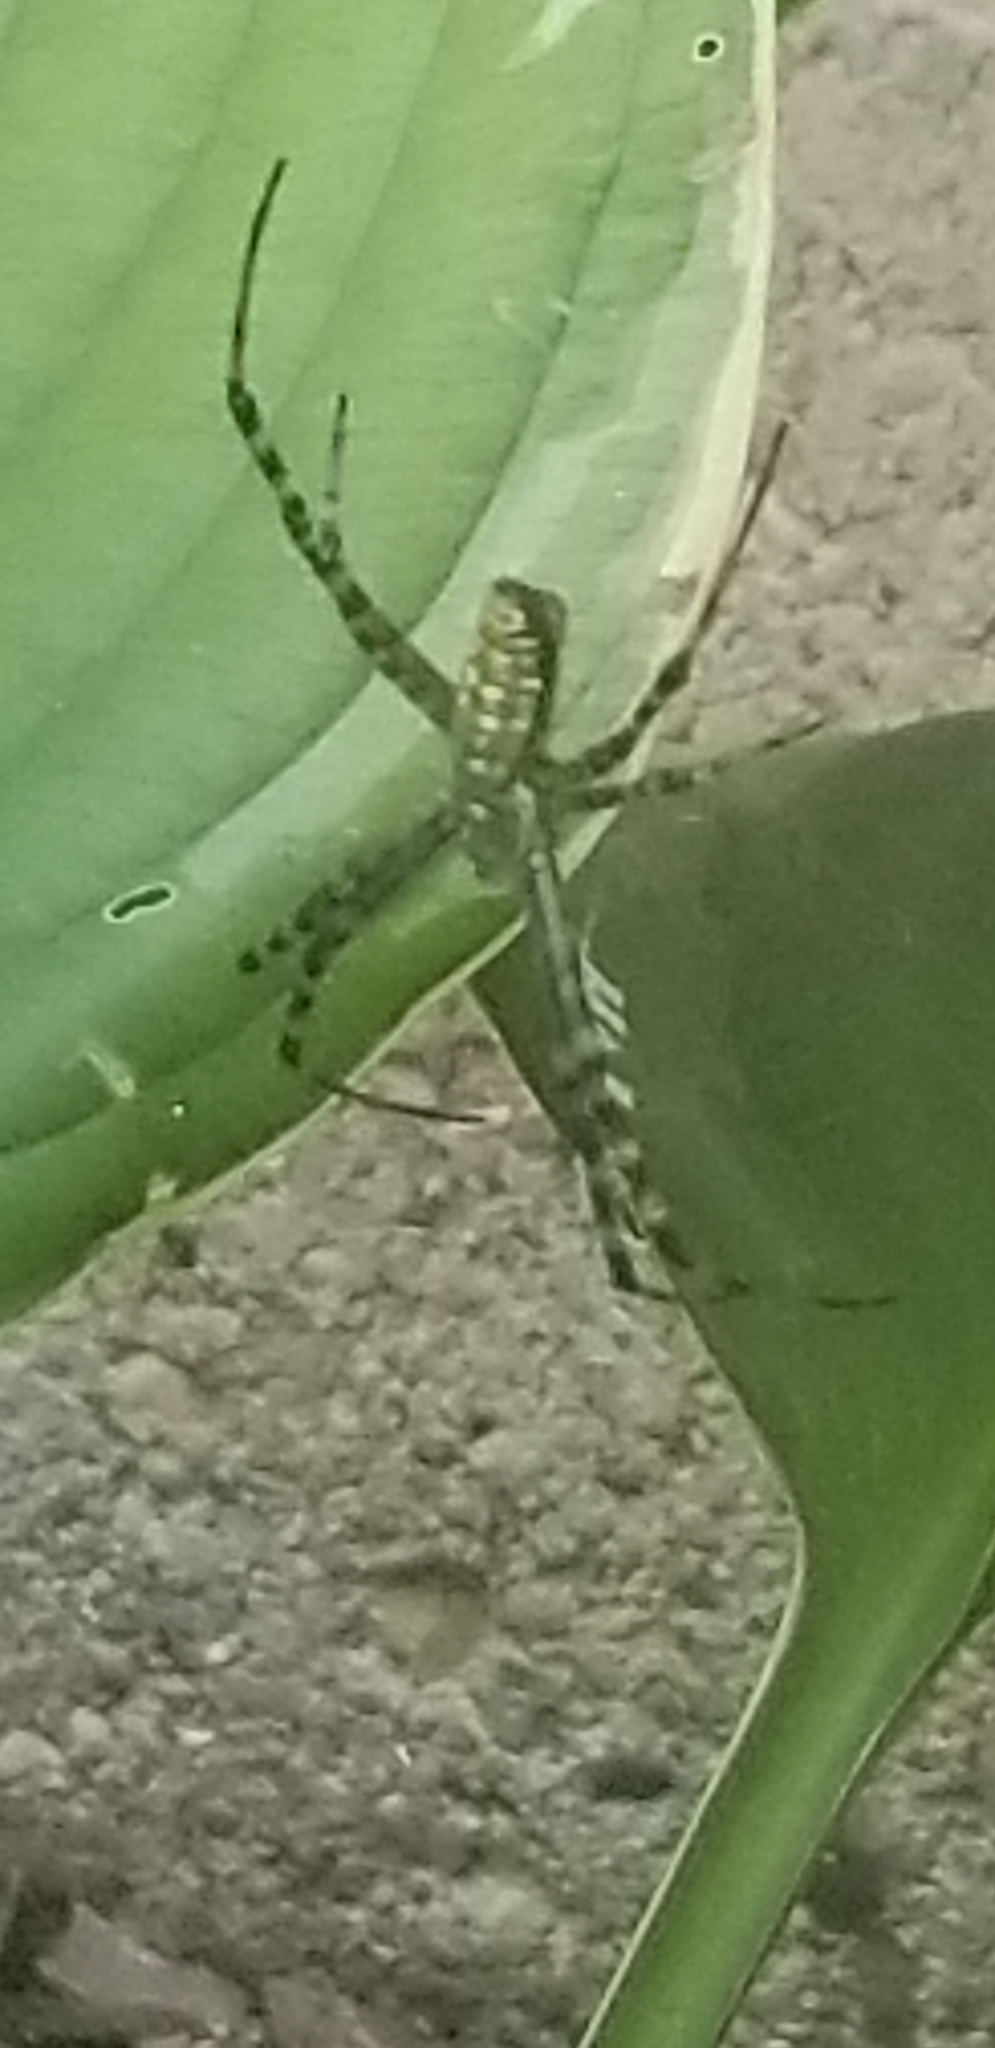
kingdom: Animalia
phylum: Arthropoda
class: Arachnida
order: Araneae
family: Araneidae
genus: Argiope
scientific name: Argiope trifasciata
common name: Banded garden spider
